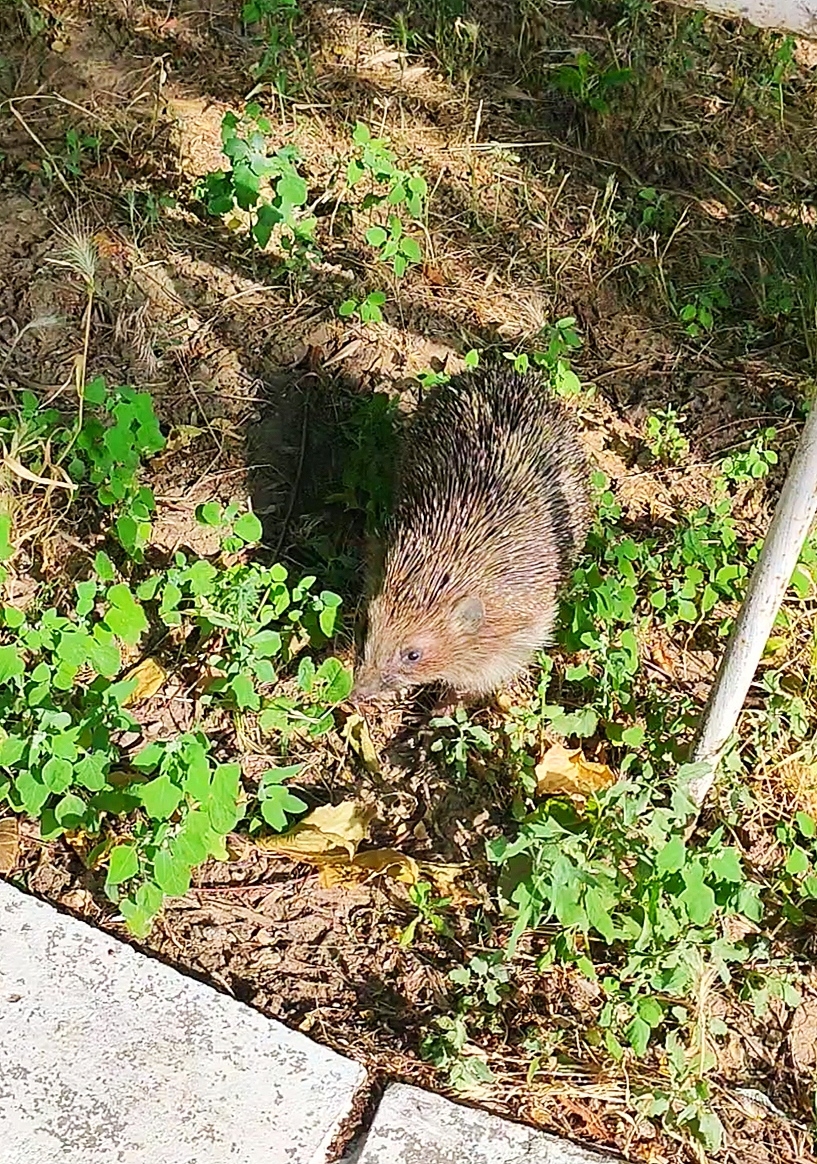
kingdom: Animalia
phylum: Chordata
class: Mammalia
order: Erinaceomorpha
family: Erinaceidae
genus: Erinaceus
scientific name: Erinaceus roumanicus
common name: Northern white-breasted hedgehog
